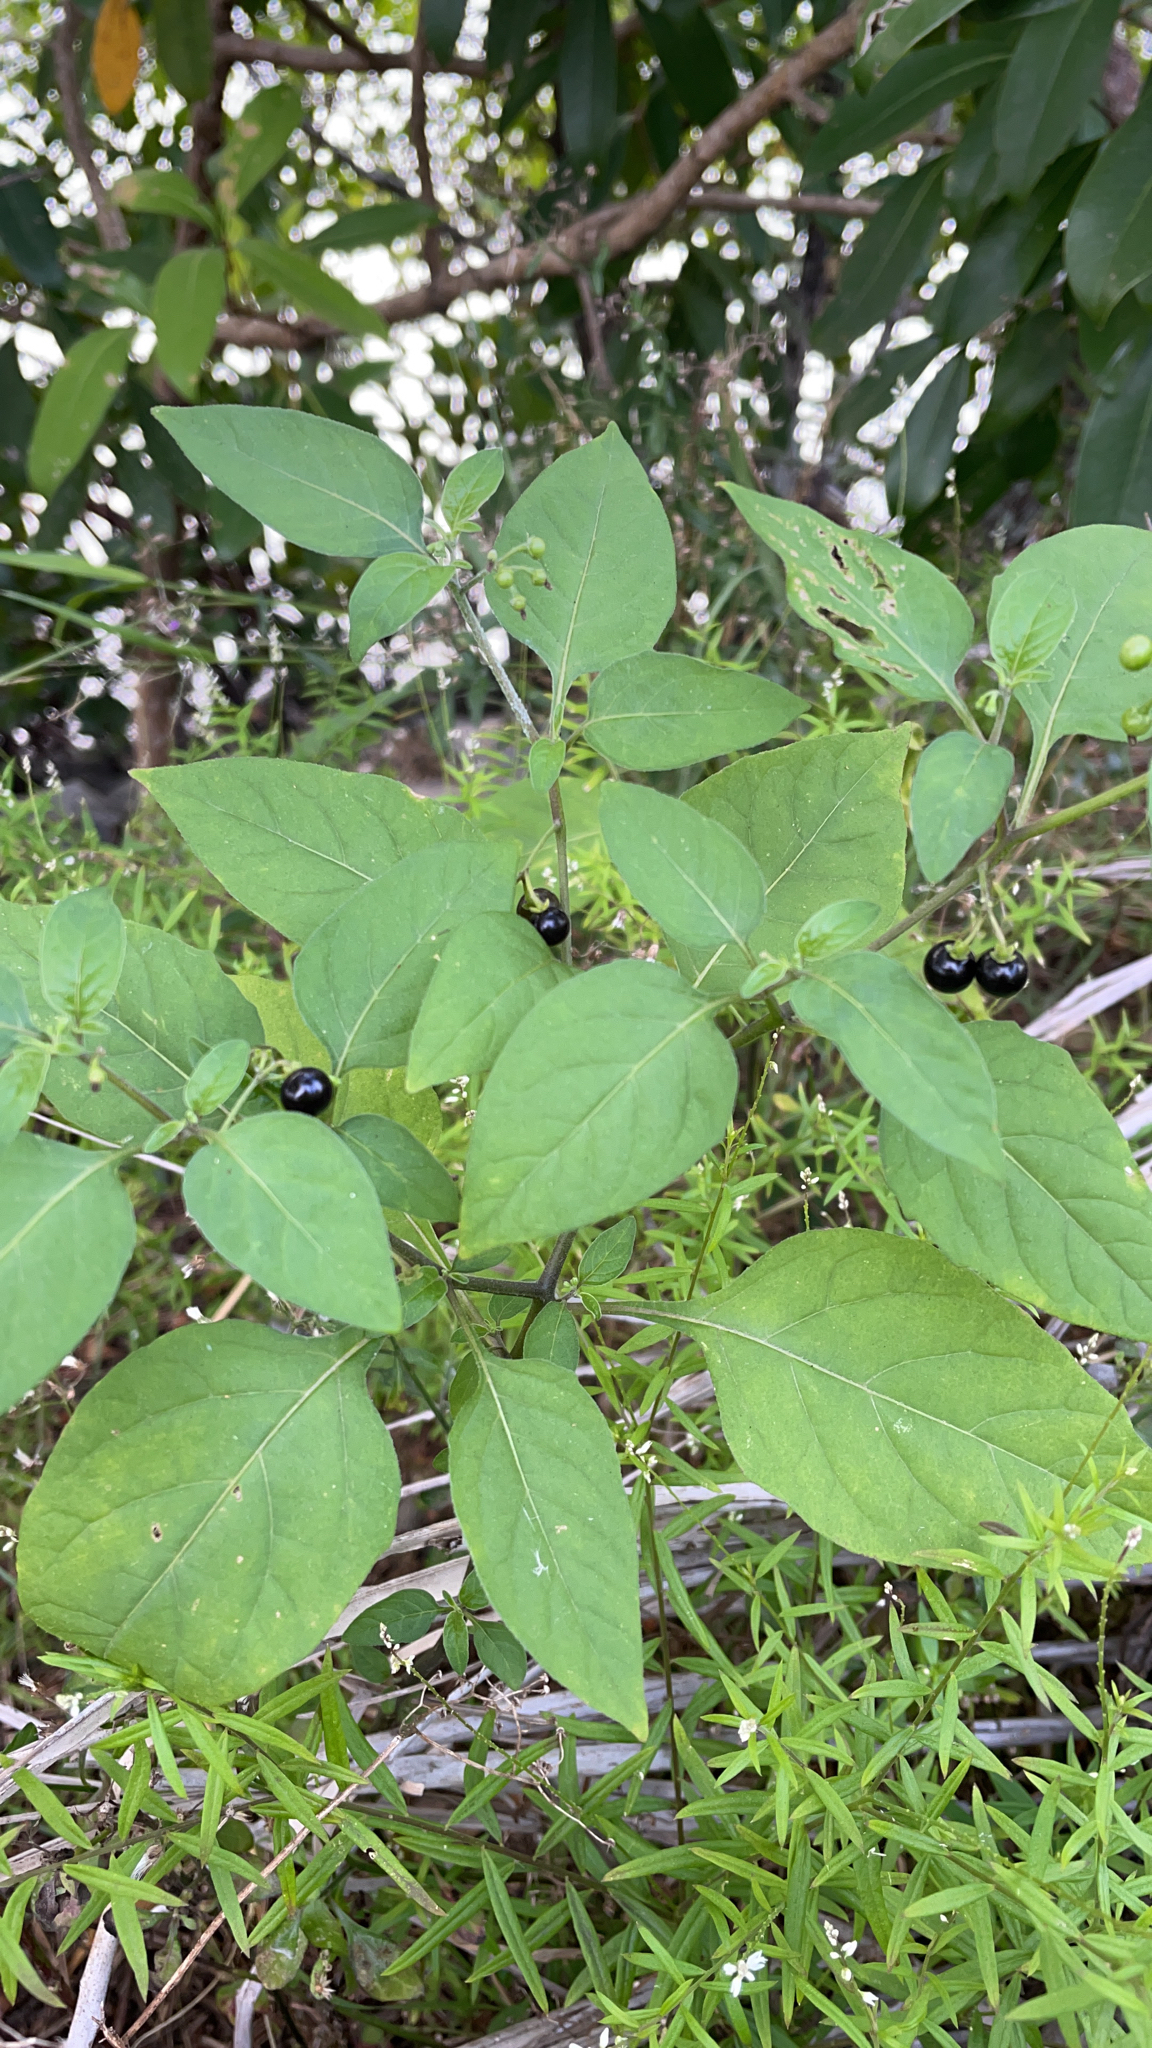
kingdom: Plantae
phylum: Tracheophyta
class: Magnoliopsida
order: Solanales
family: Solanaceae
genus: Solanum
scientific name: Solanum americanum
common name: American black nightshade
